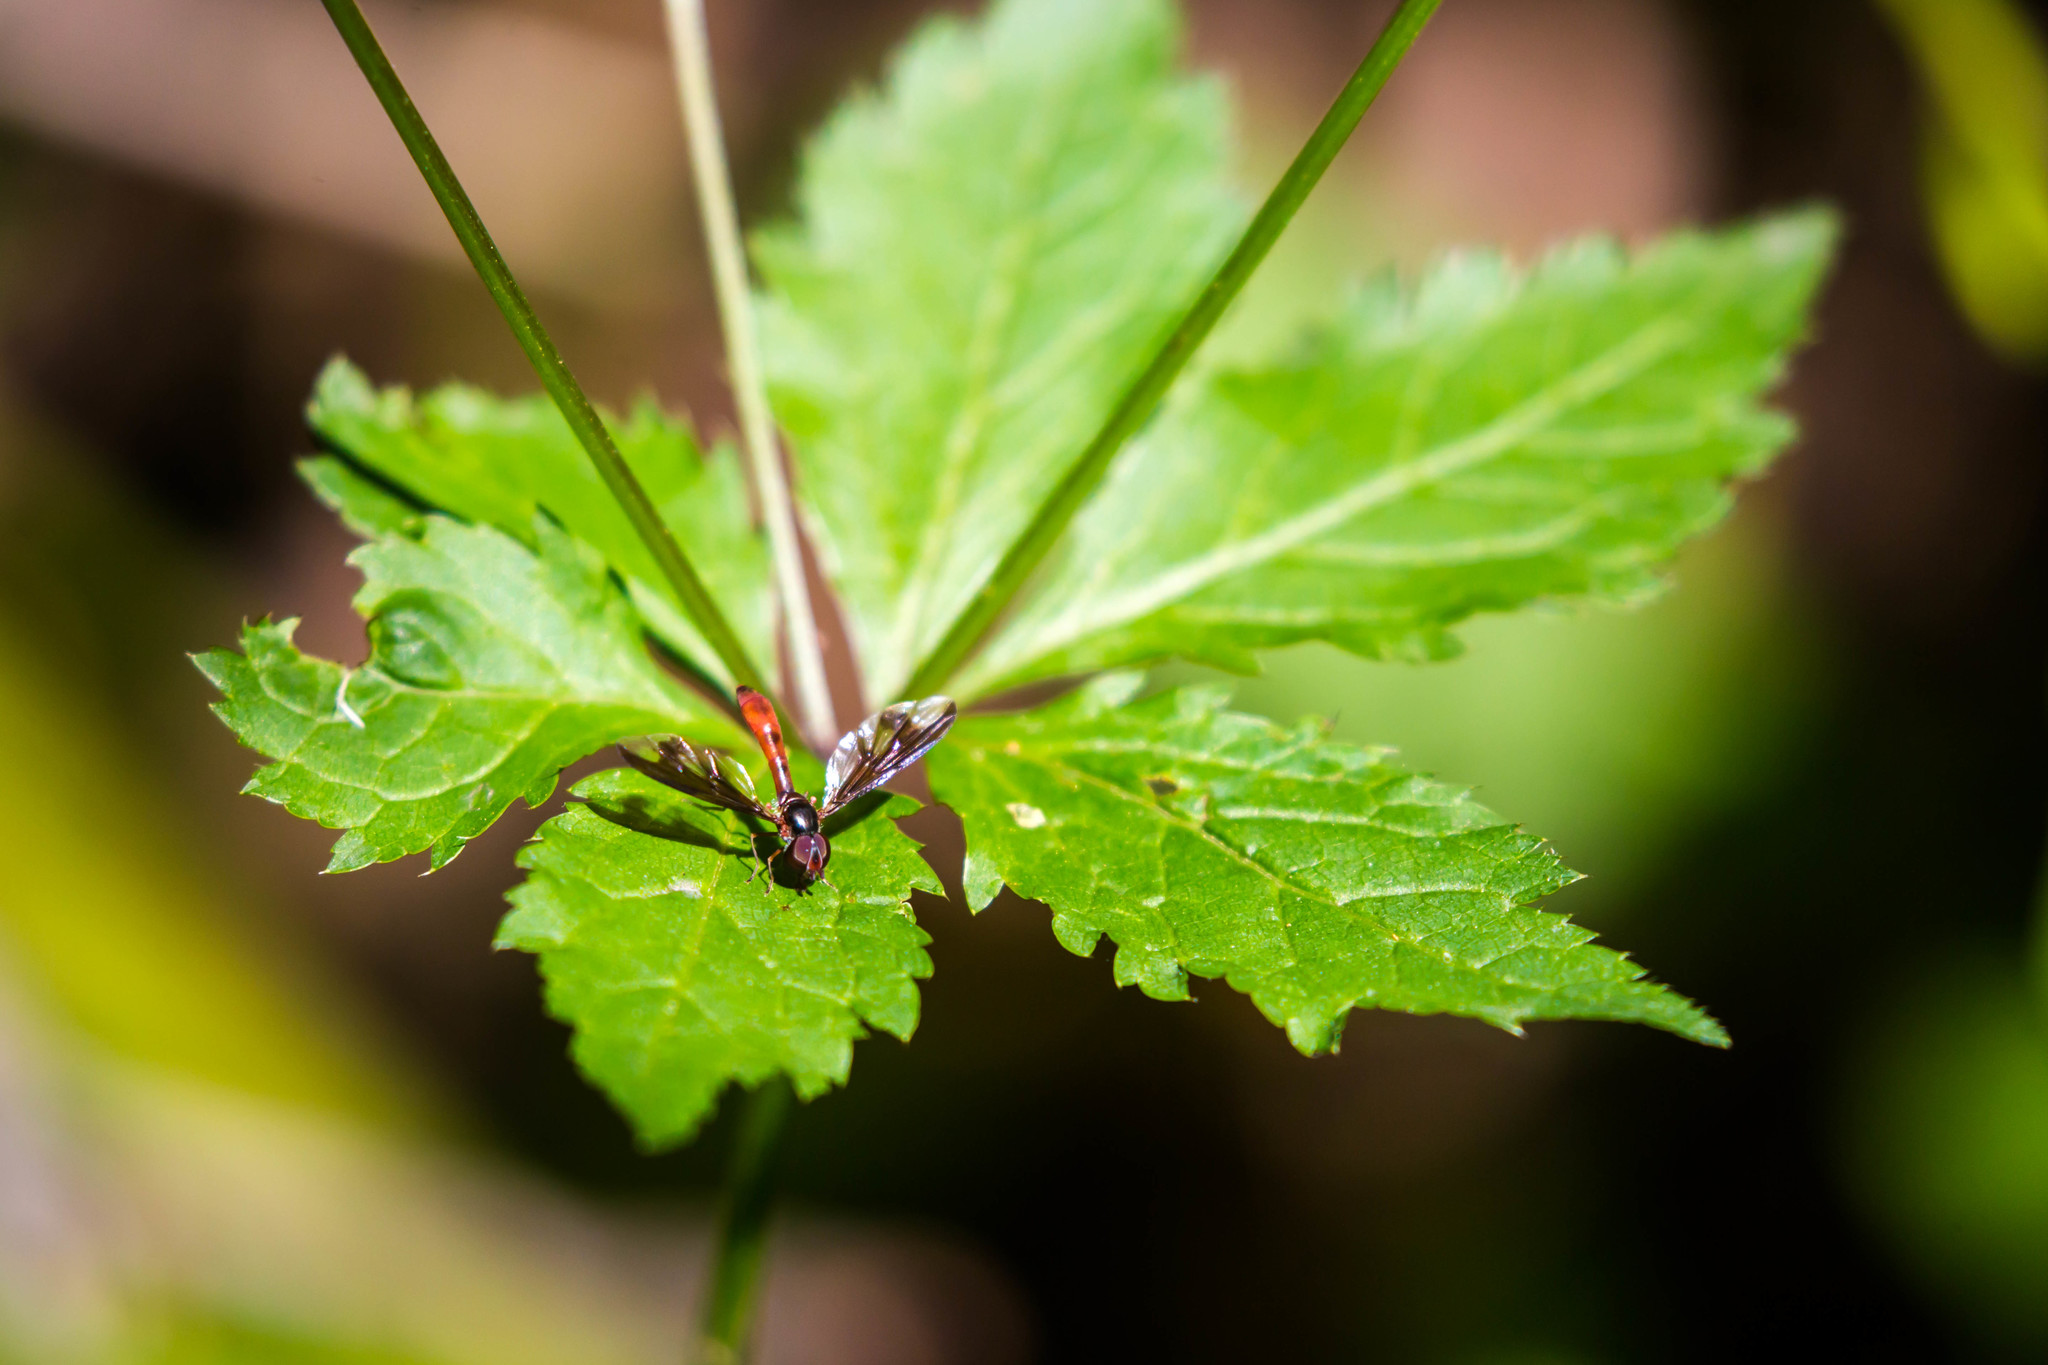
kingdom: Animalia
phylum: Arthropoda
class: Insecta
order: Diptera
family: Syrphidae
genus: Ocyptamus
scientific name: Ocyptamus fuscipennis
